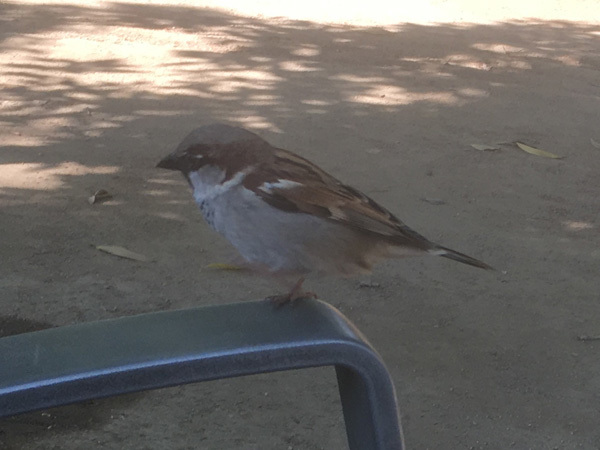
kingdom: Animalia
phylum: Chordata
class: Aves
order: Passeriformes
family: Passeridae
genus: Passer
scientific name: Passer domesticus
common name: House sparrow
